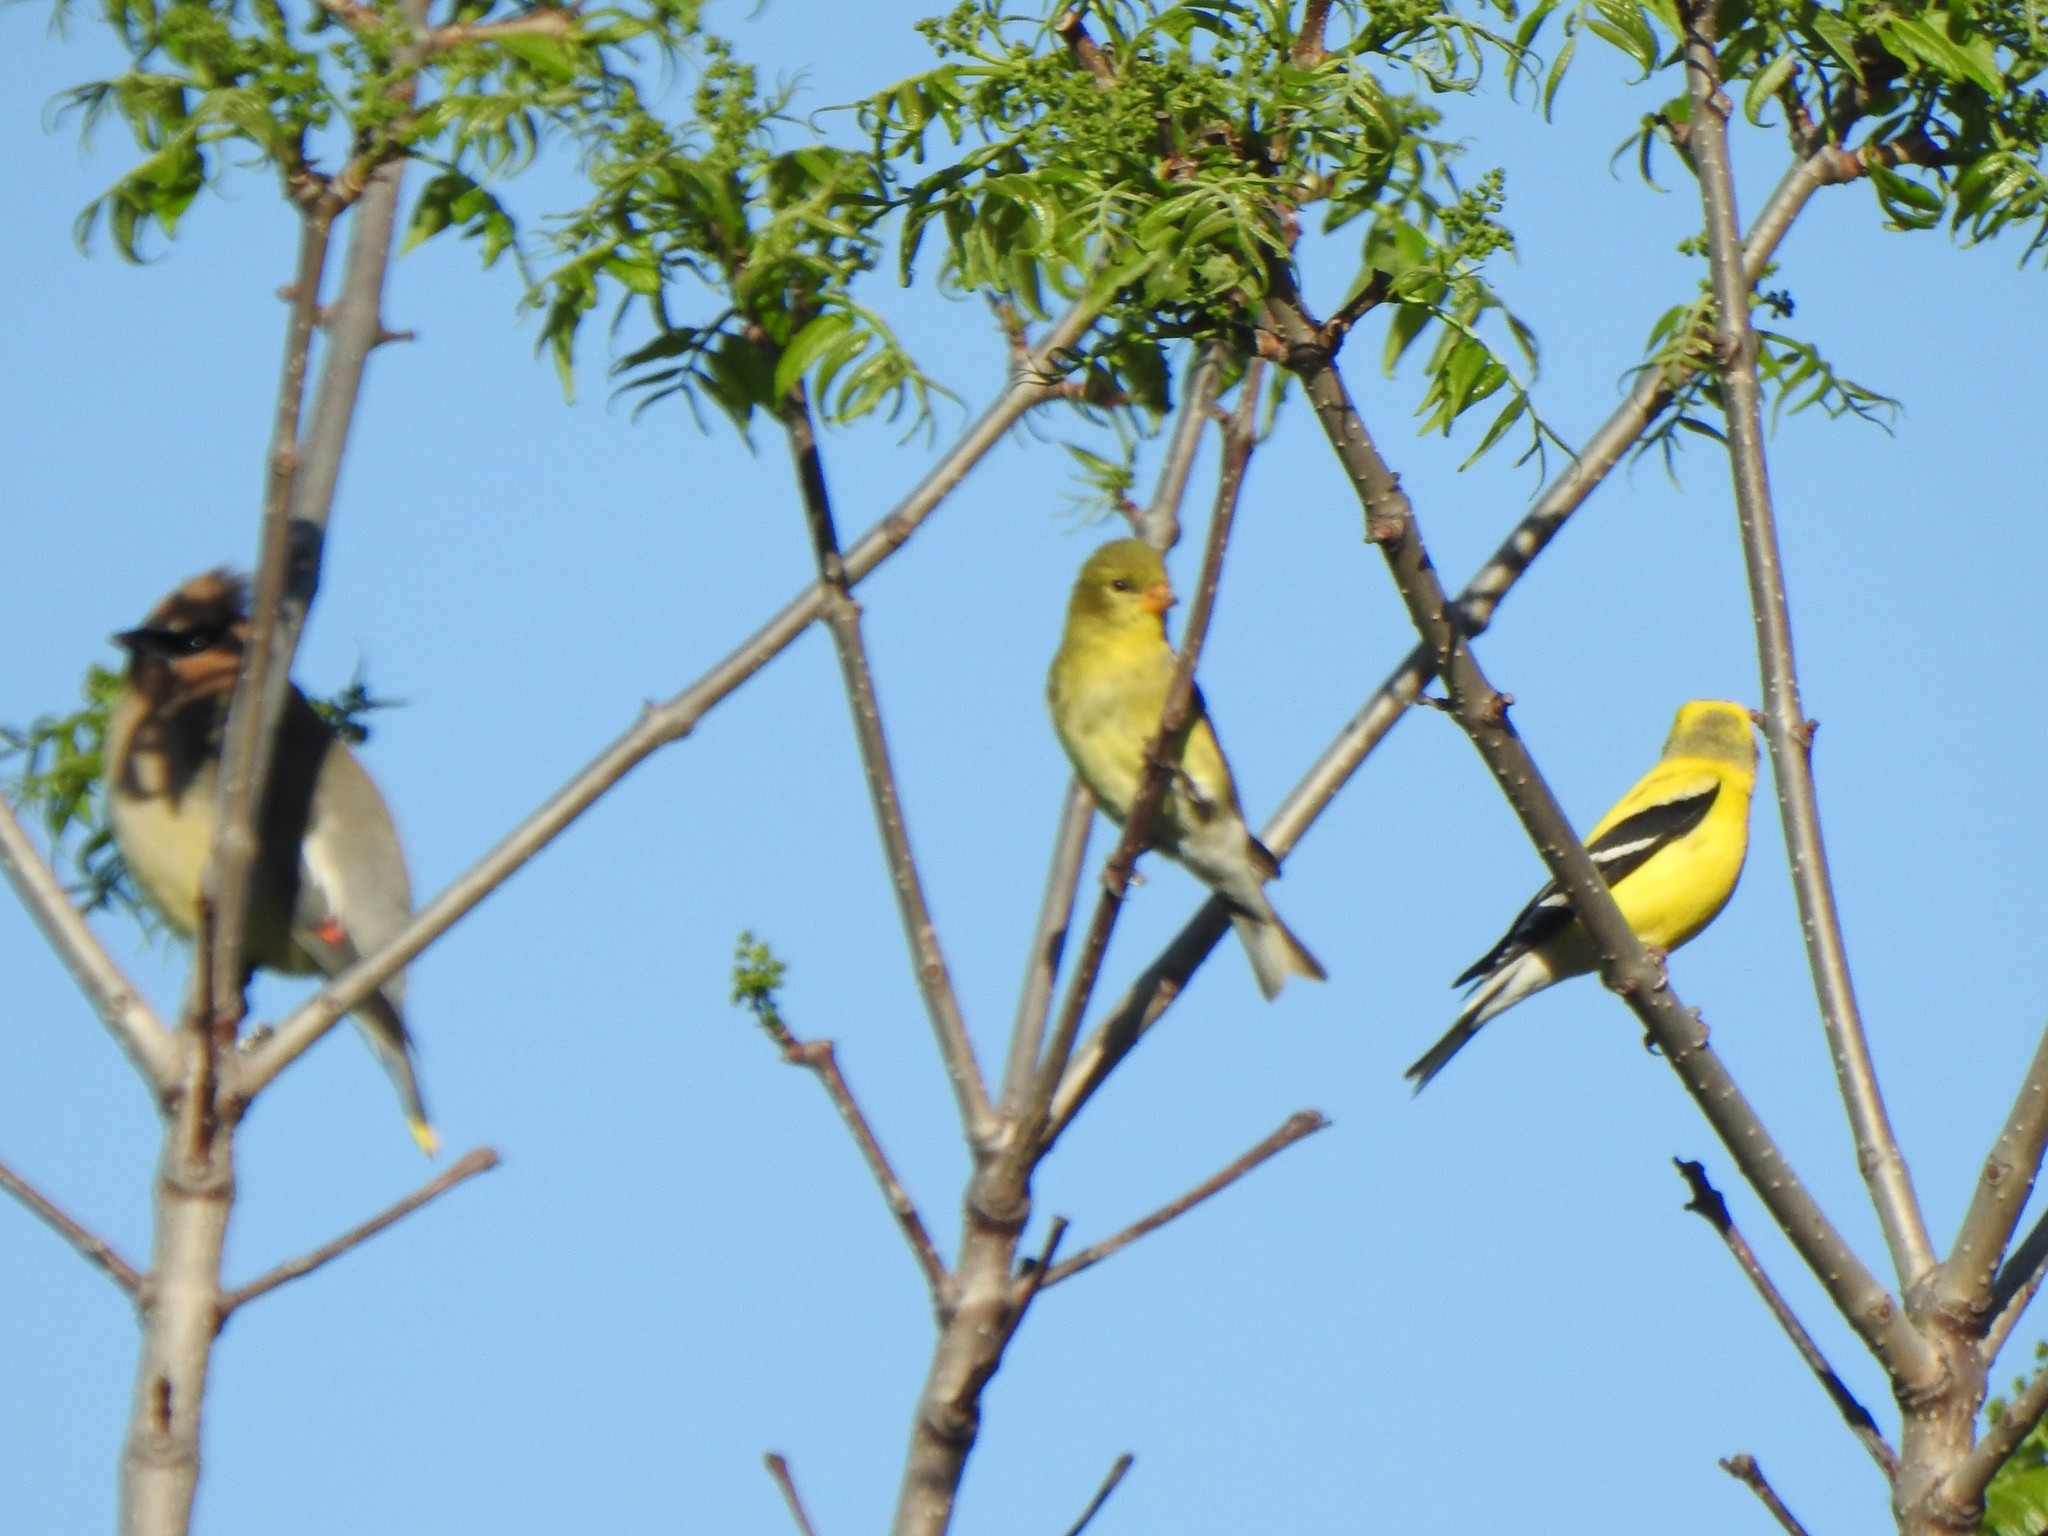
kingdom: Animalia
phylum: Chordata
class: Aves
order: Passeriformes
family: Fringillidae
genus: Spinus
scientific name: Spinus tristis
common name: American goldfinch
